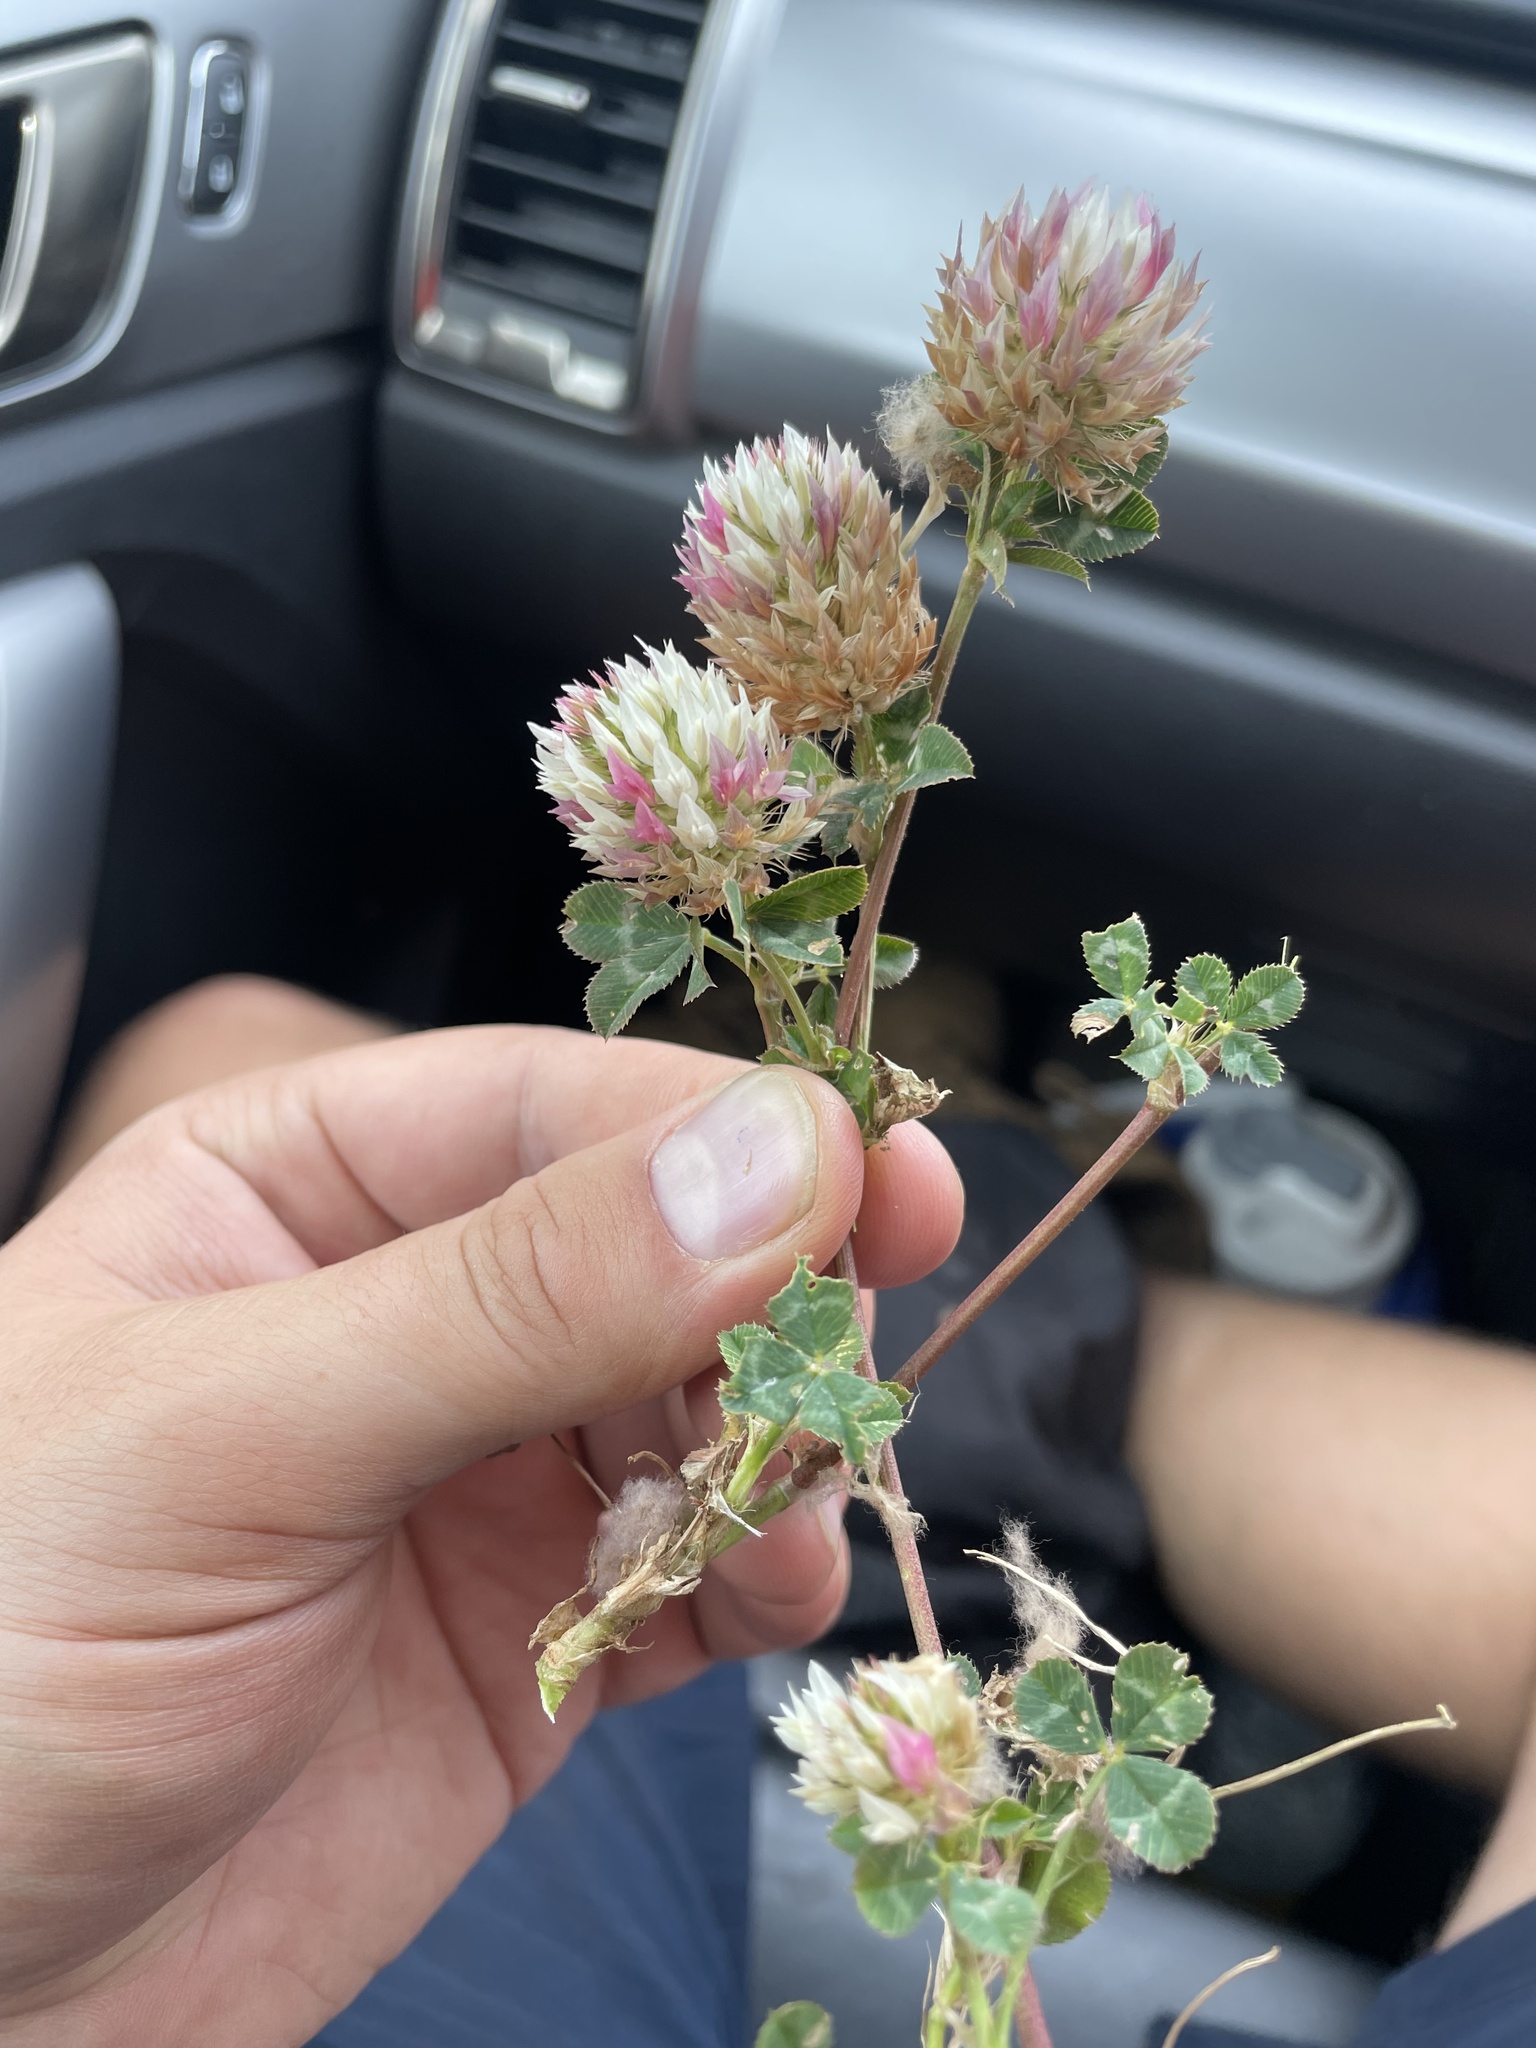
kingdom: Plantae
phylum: Tracheophyta
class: Magnoliopsida
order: Fabales
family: Fabaceae
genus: Trifolium
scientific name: Trifolium vesiculosum
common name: Arrowleaf clover
